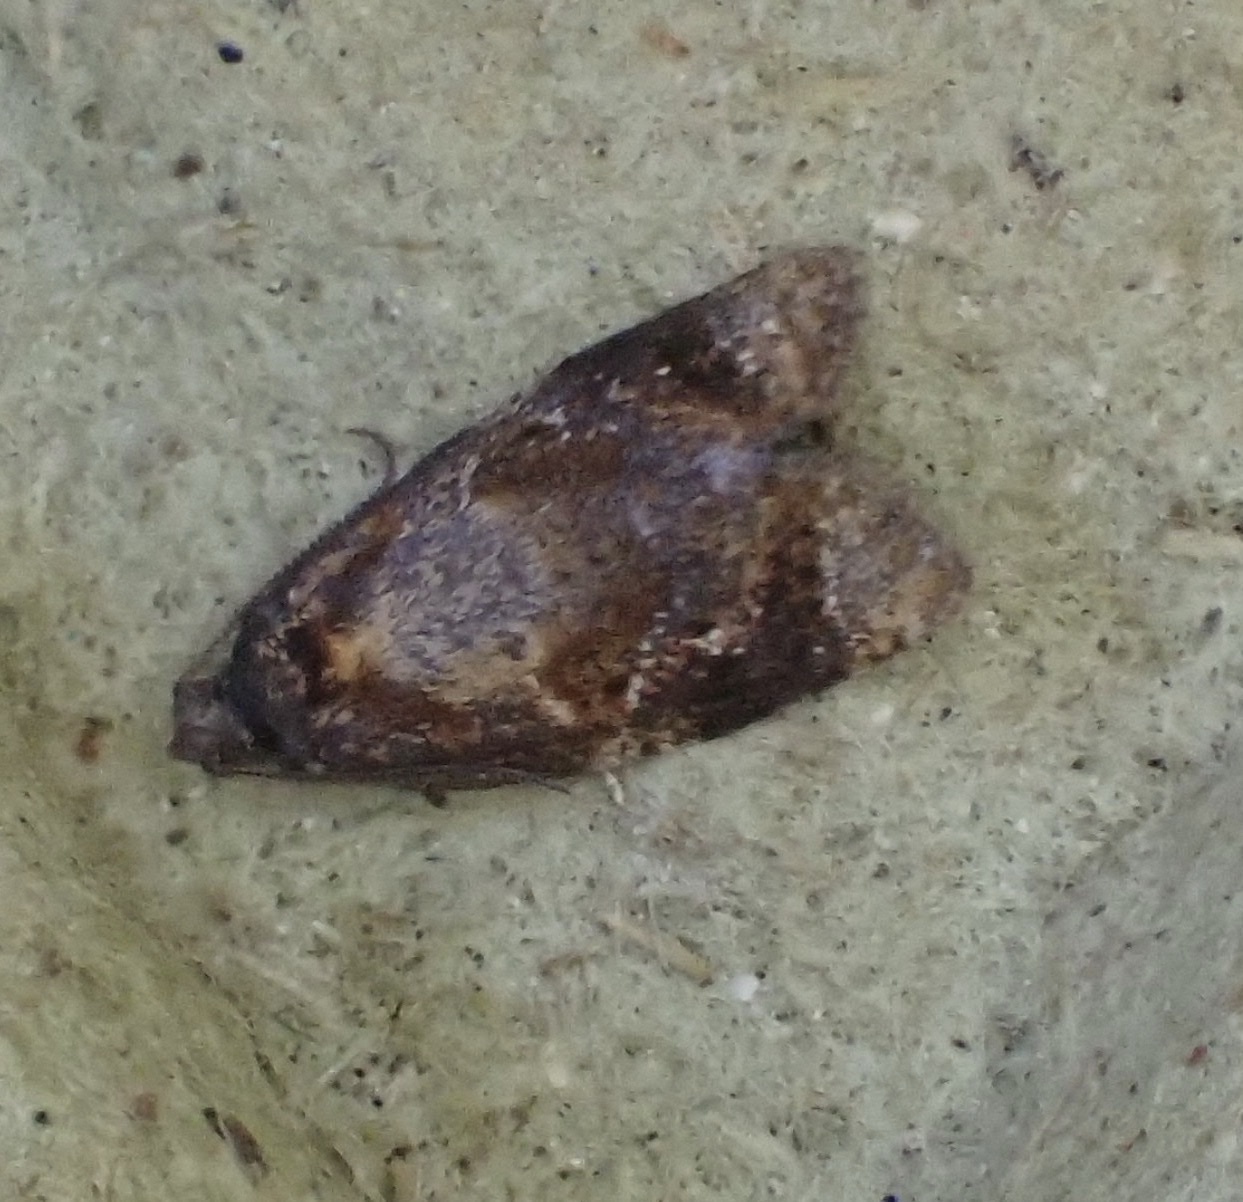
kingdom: Animalia
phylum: Arthropoda
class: Insecta
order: Lepidoptera
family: Tortricidae
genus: Ditula
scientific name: Ditula angustiorana
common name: Red-barred tortrix
